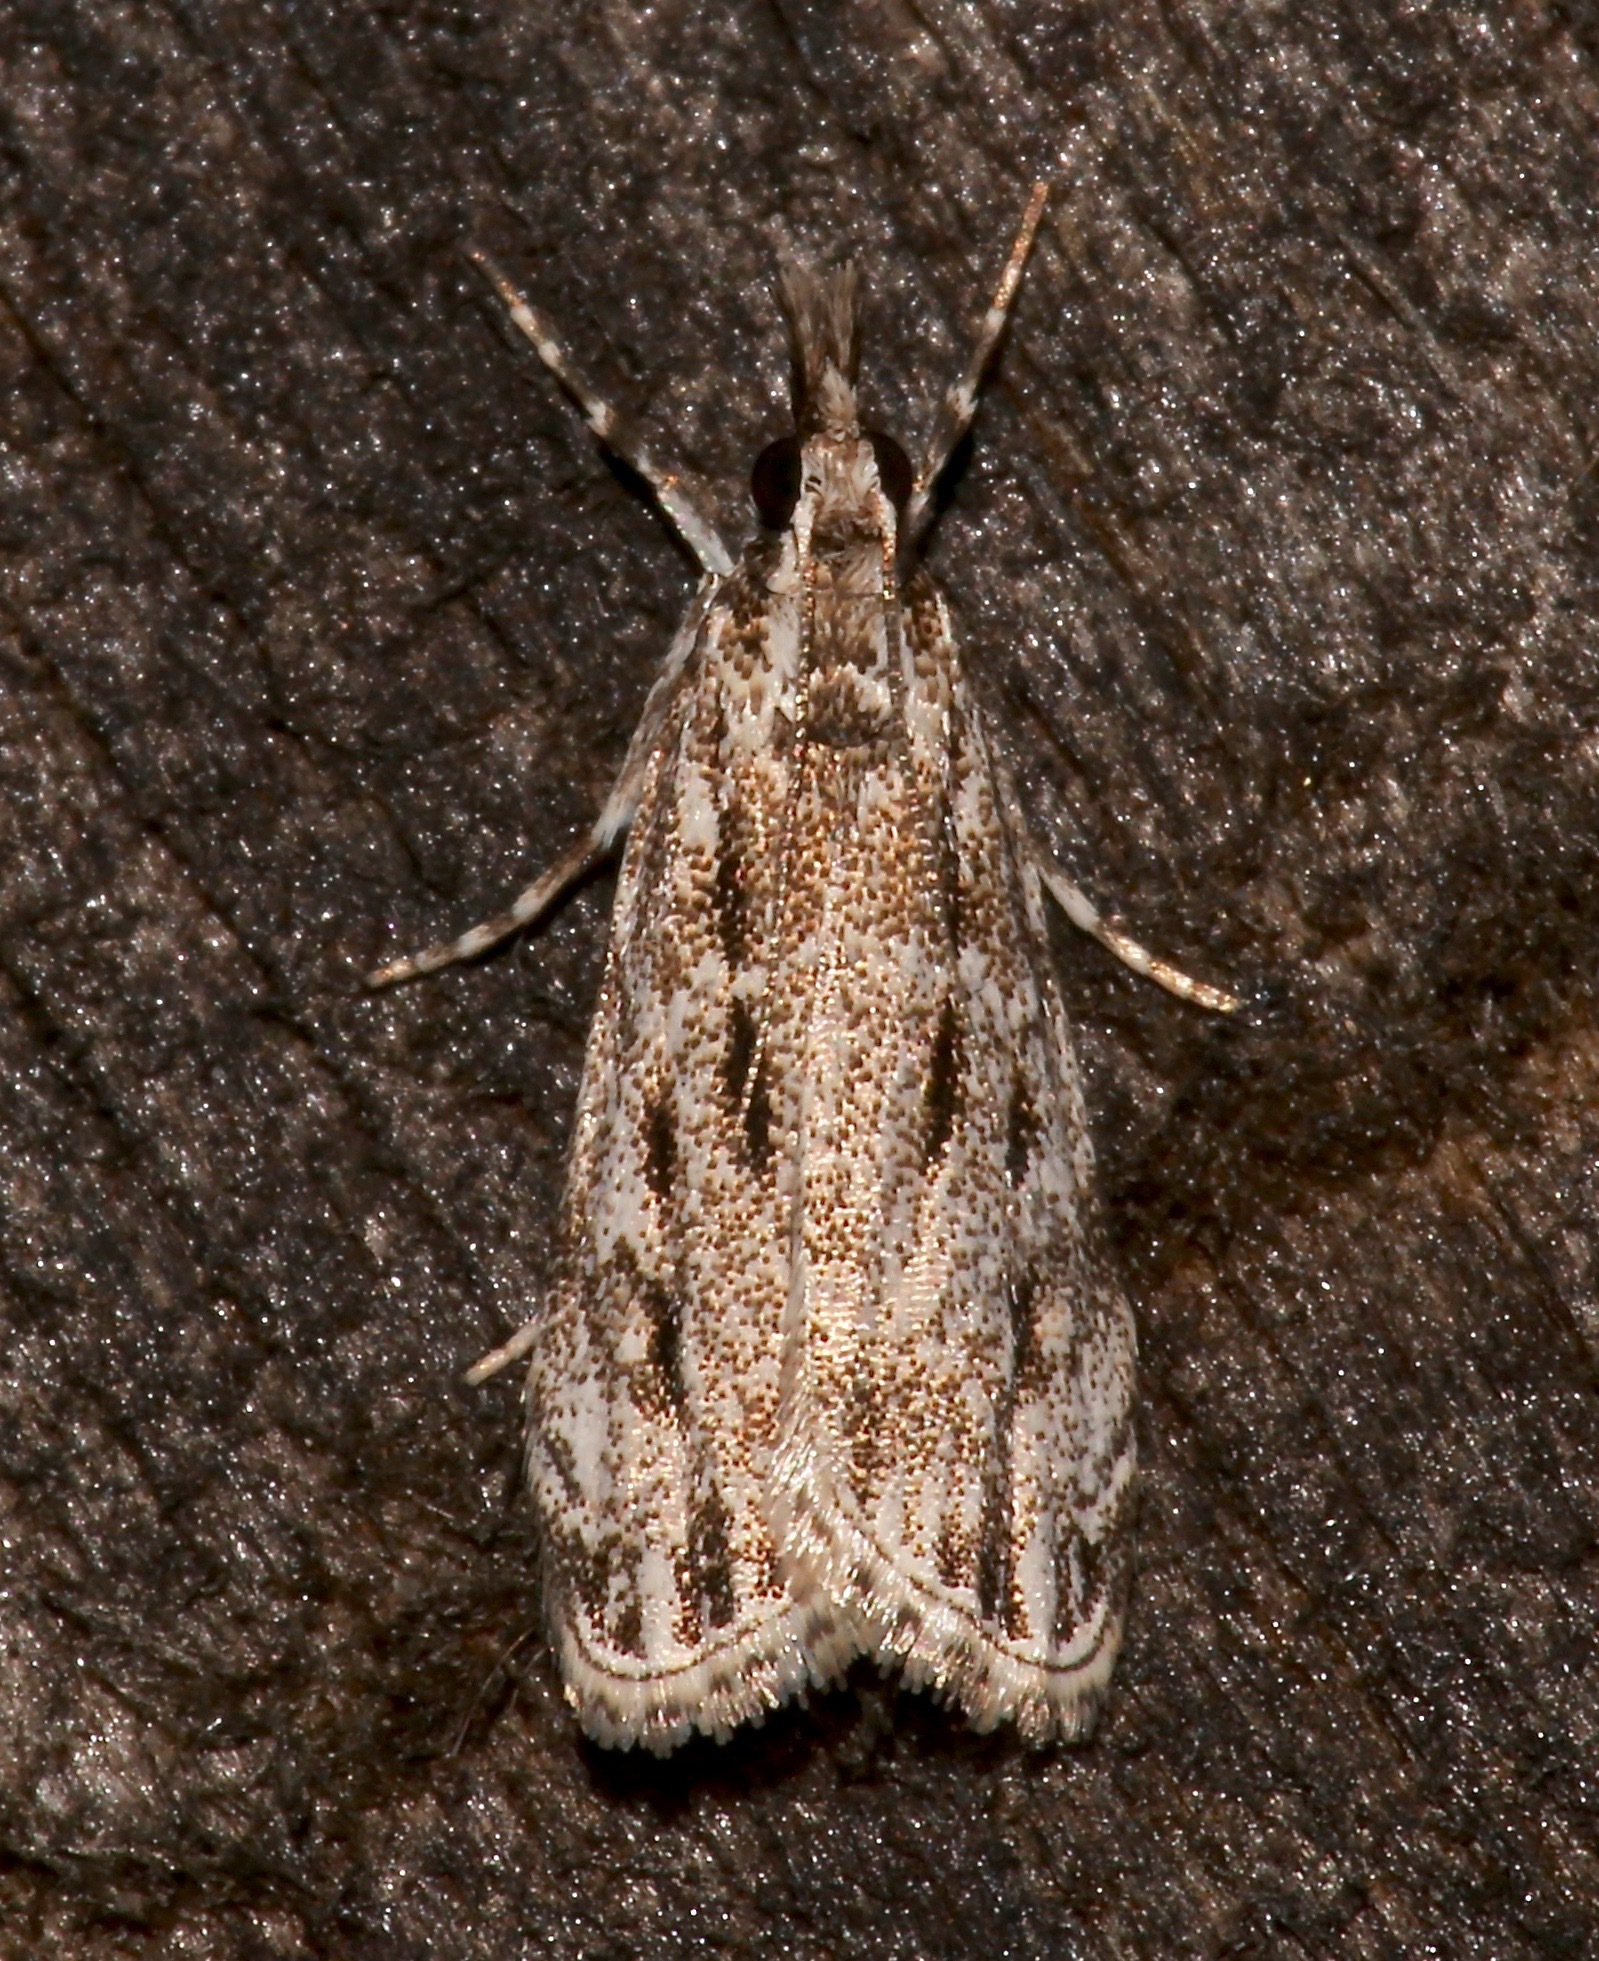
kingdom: Animalia
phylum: Arthropoda
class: Insecta
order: Lepidoptera
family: Crambidae
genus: Eudonia
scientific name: Eudonia strigalis
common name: Striped eudonia moth
